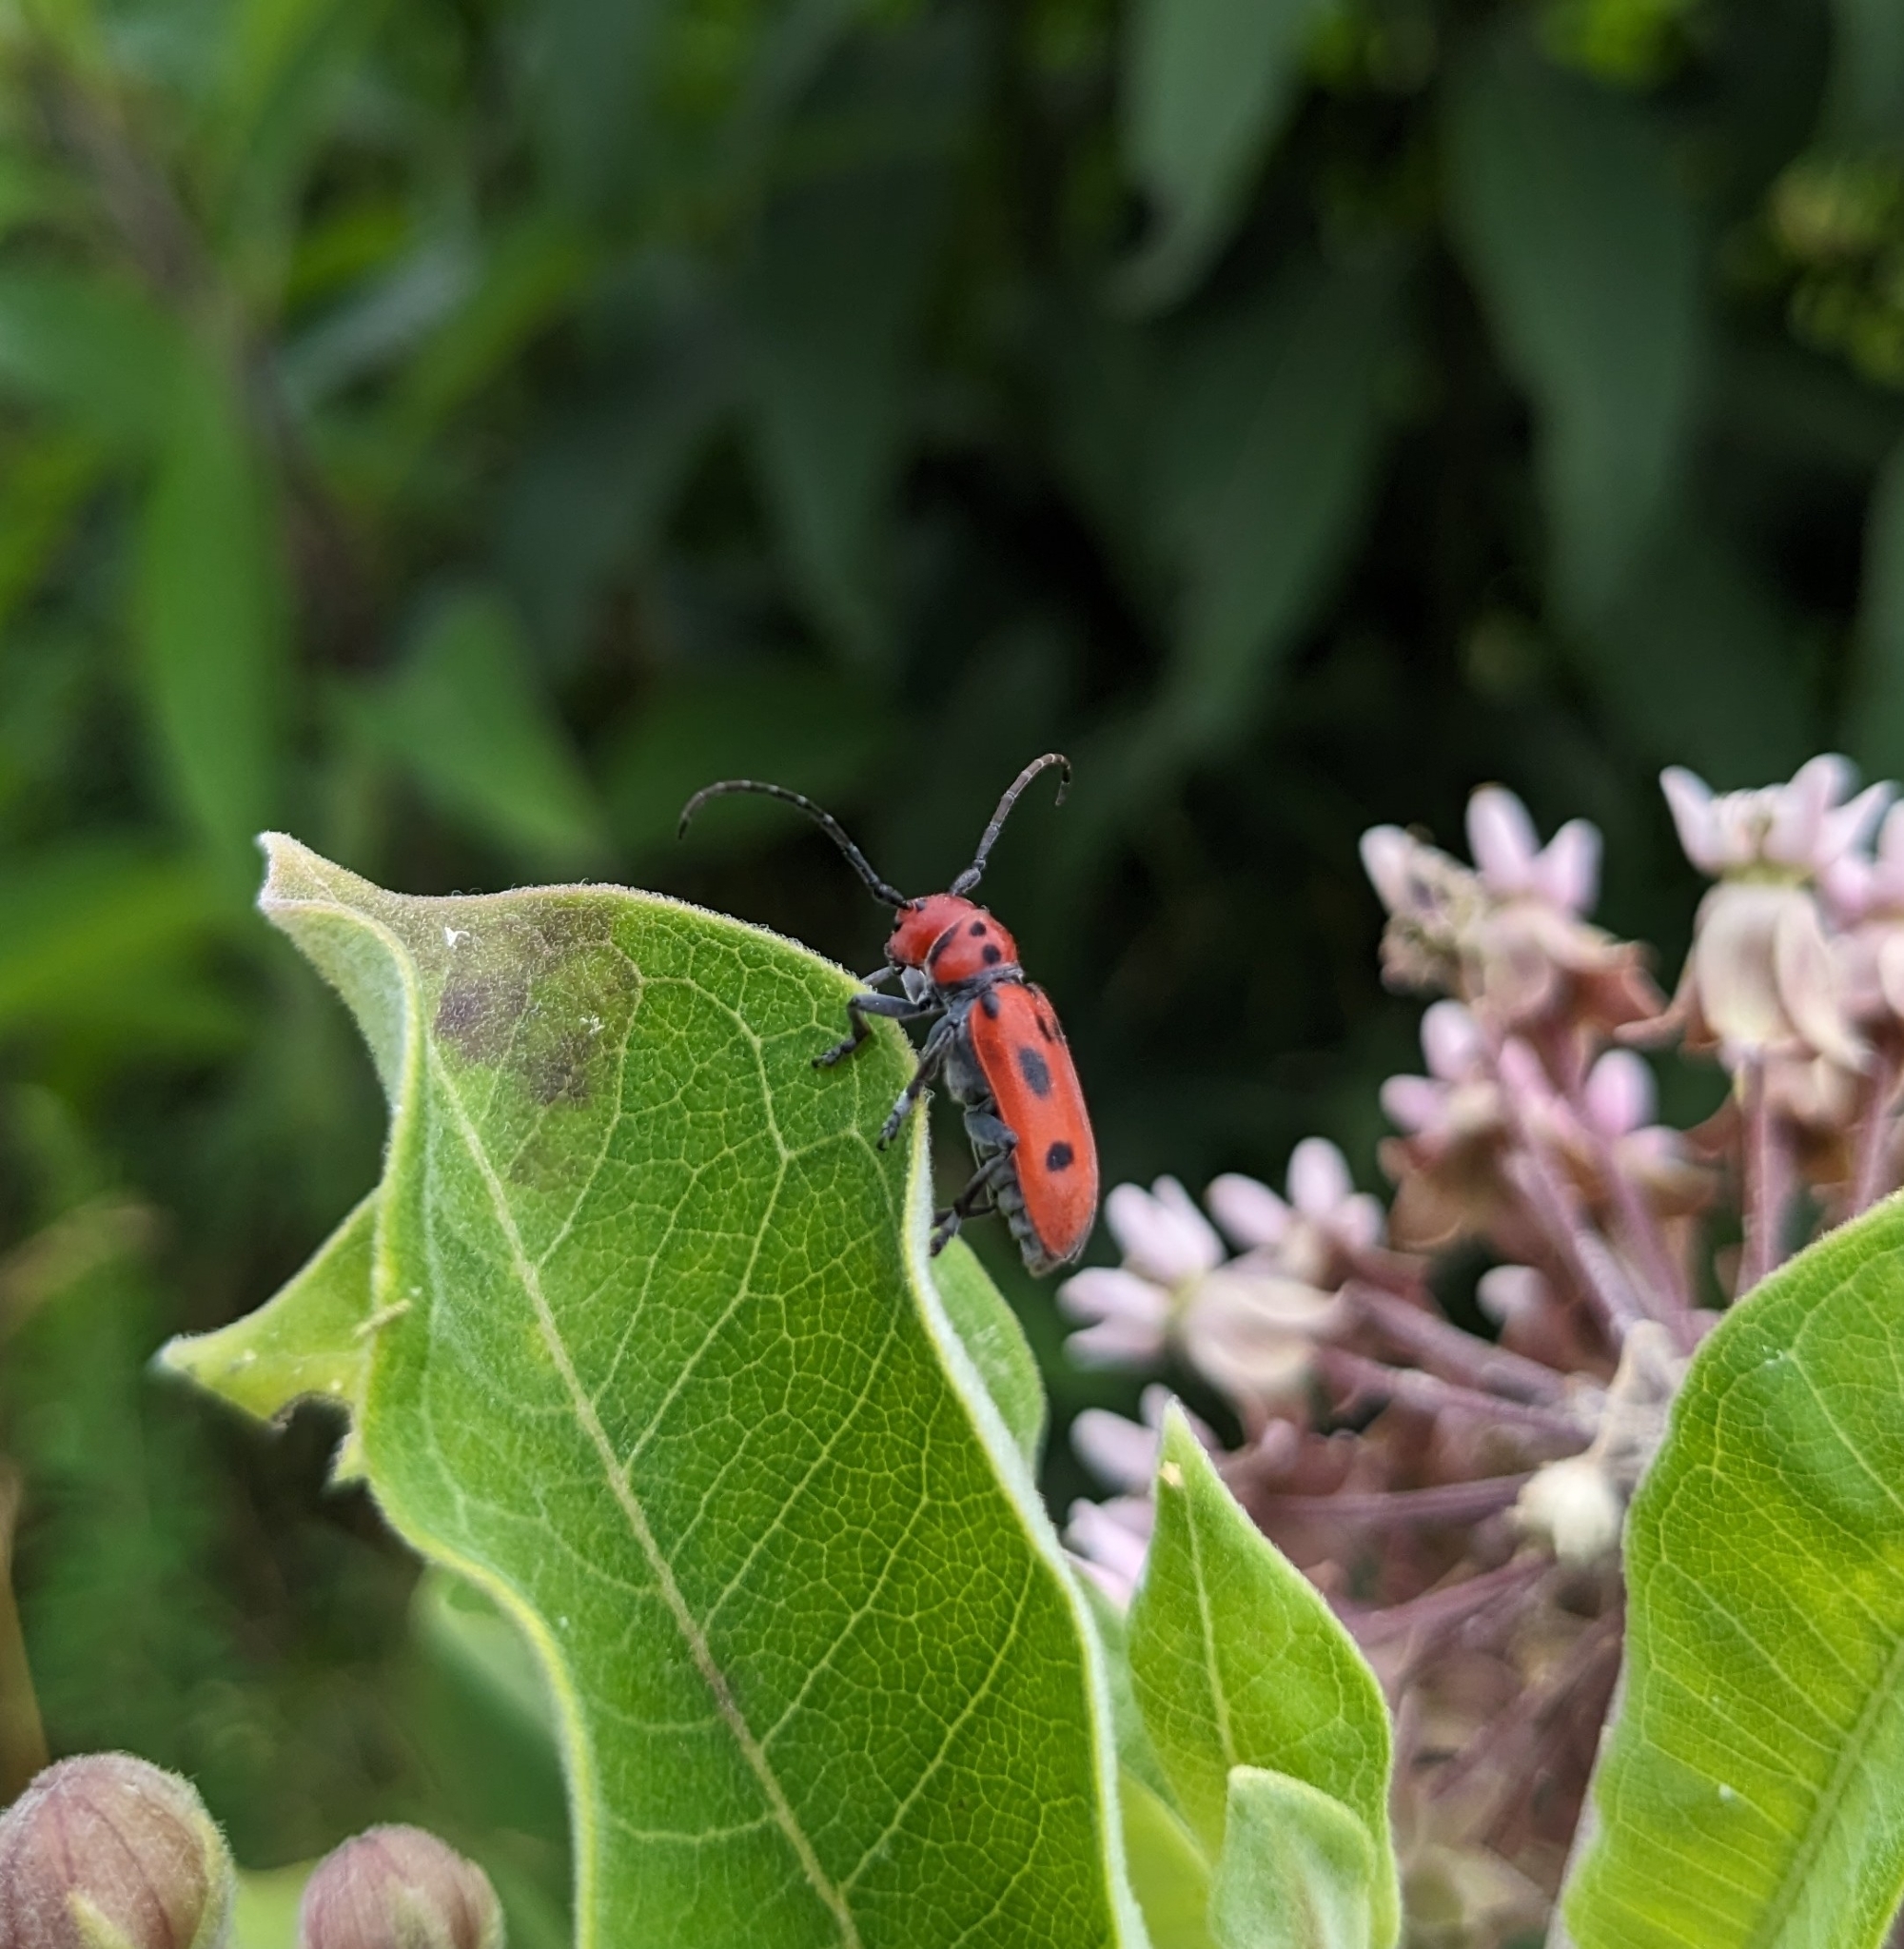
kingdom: Animalia
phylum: Arthropoda
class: Insecta
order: Coleoptera
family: Cerambycidae
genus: Tetraopes
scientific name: Tetraopes tetrophthalmus
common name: Red milkweed beetle
